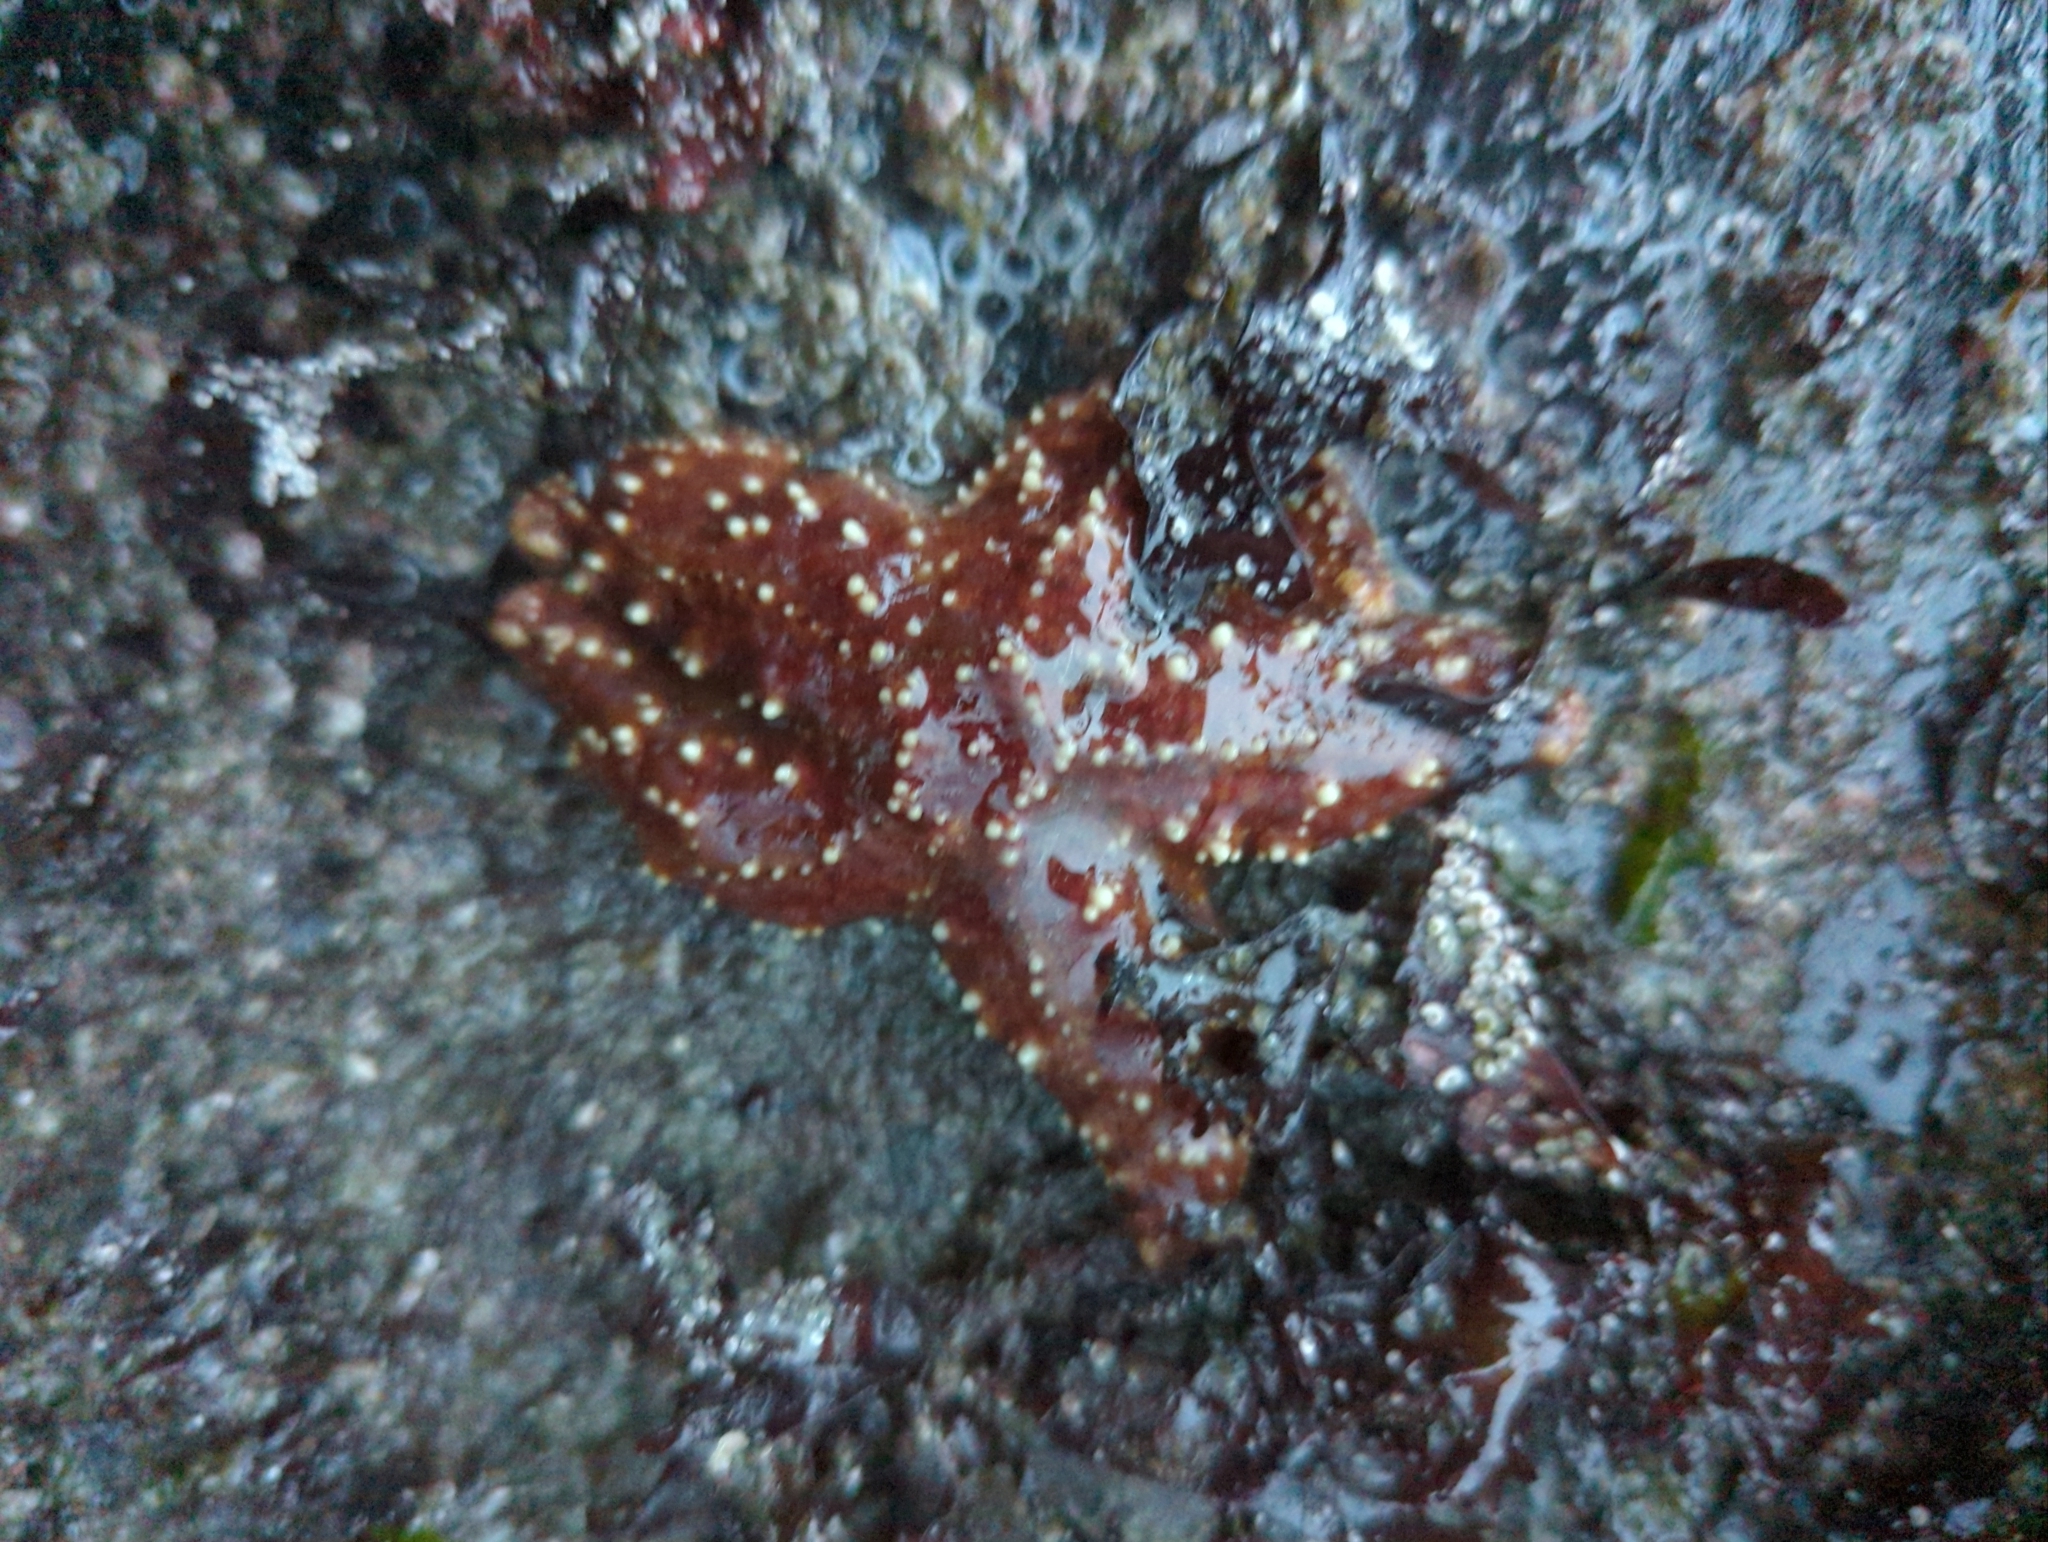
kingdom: Animalia
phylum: Echinodermata
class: Asteroidea
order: Forcipulatida
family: Asteriidae
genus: Pisaster
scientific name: Pisaster ochraceus
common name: Ochre stars
